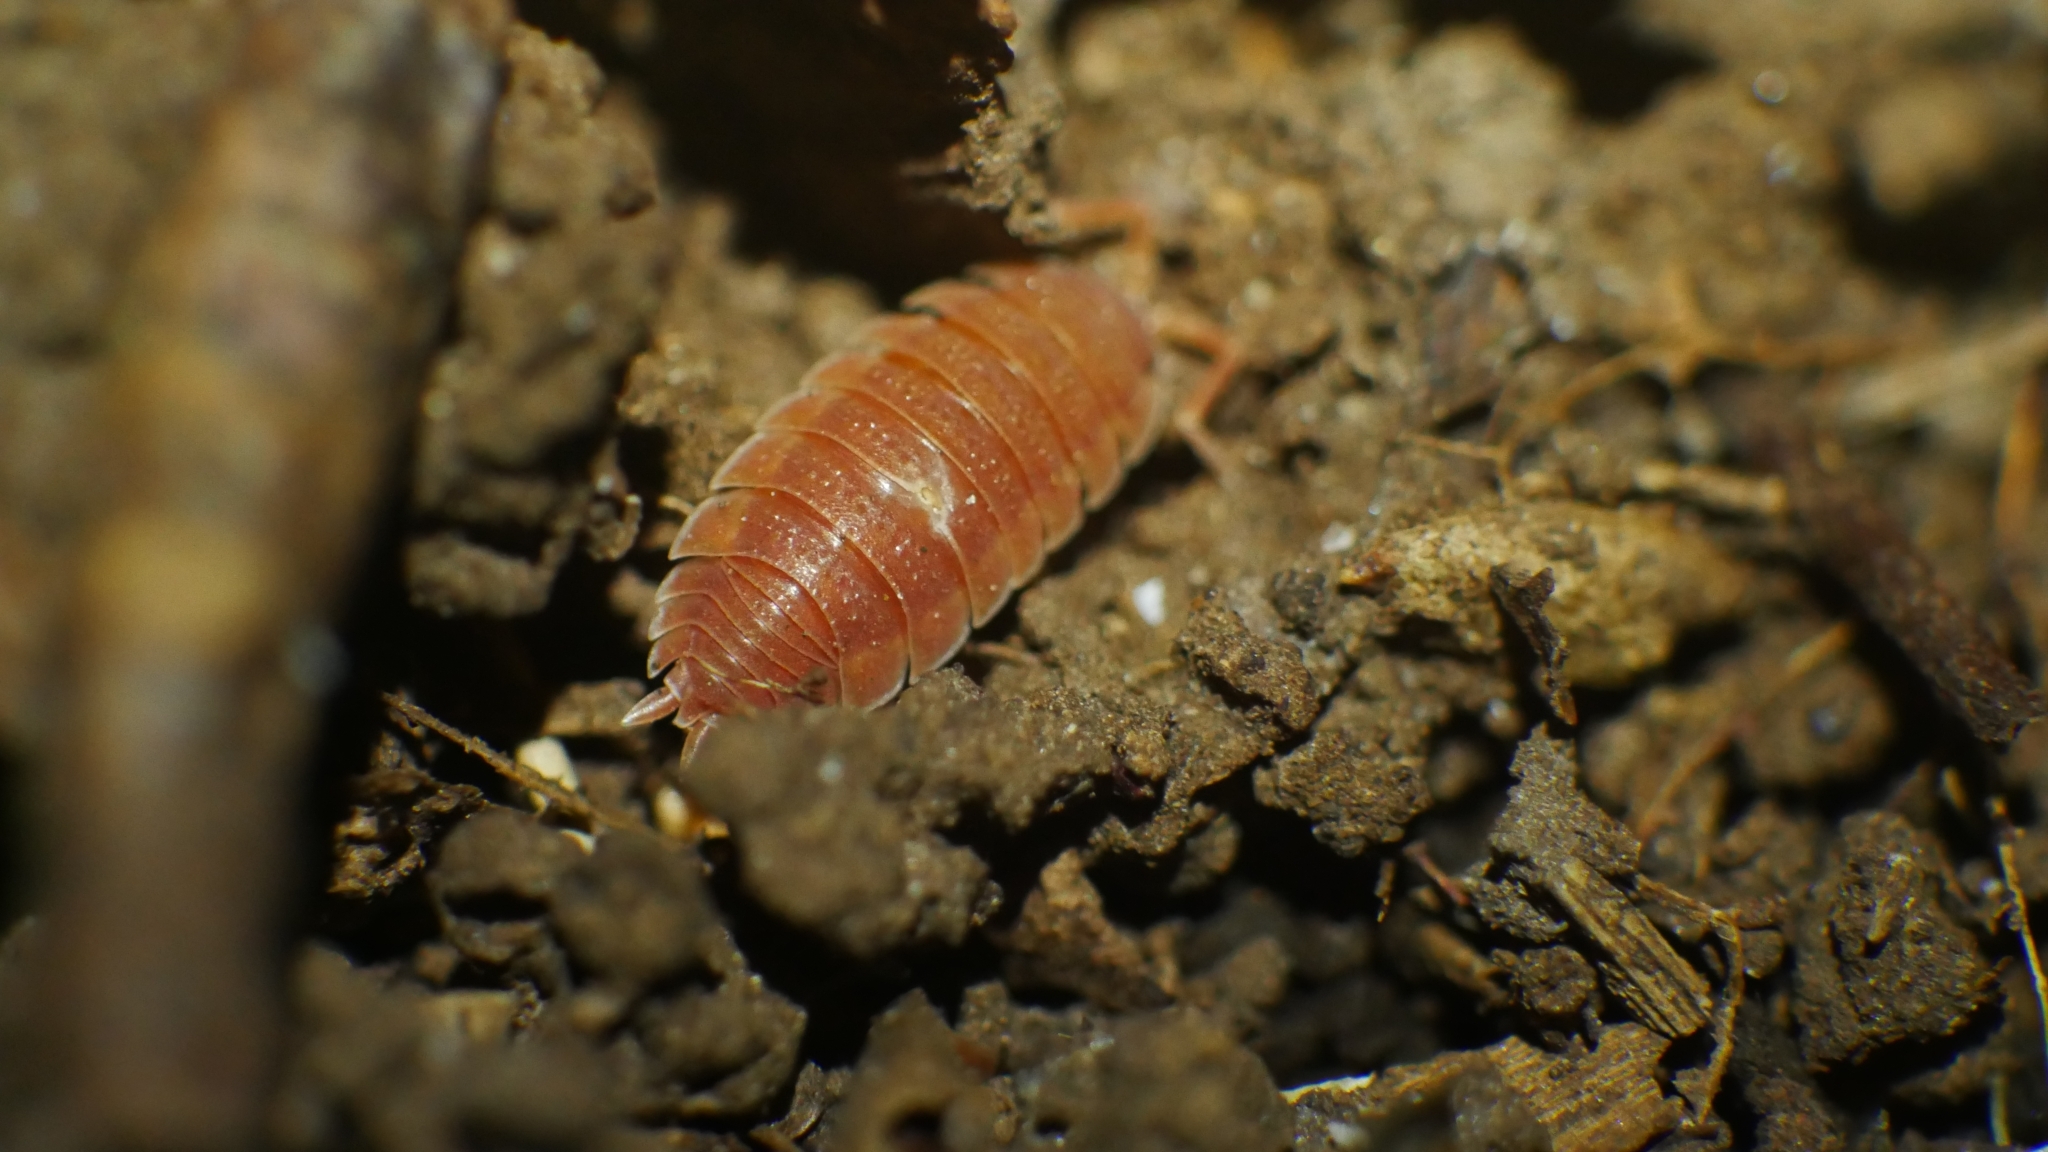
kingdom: Animalia
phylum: Arthropoda
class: Malacostraca
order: Isopoda
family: Porcellionidae
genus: Porcellio
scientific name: Porcellio scaber
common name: Common rough woodlouse
